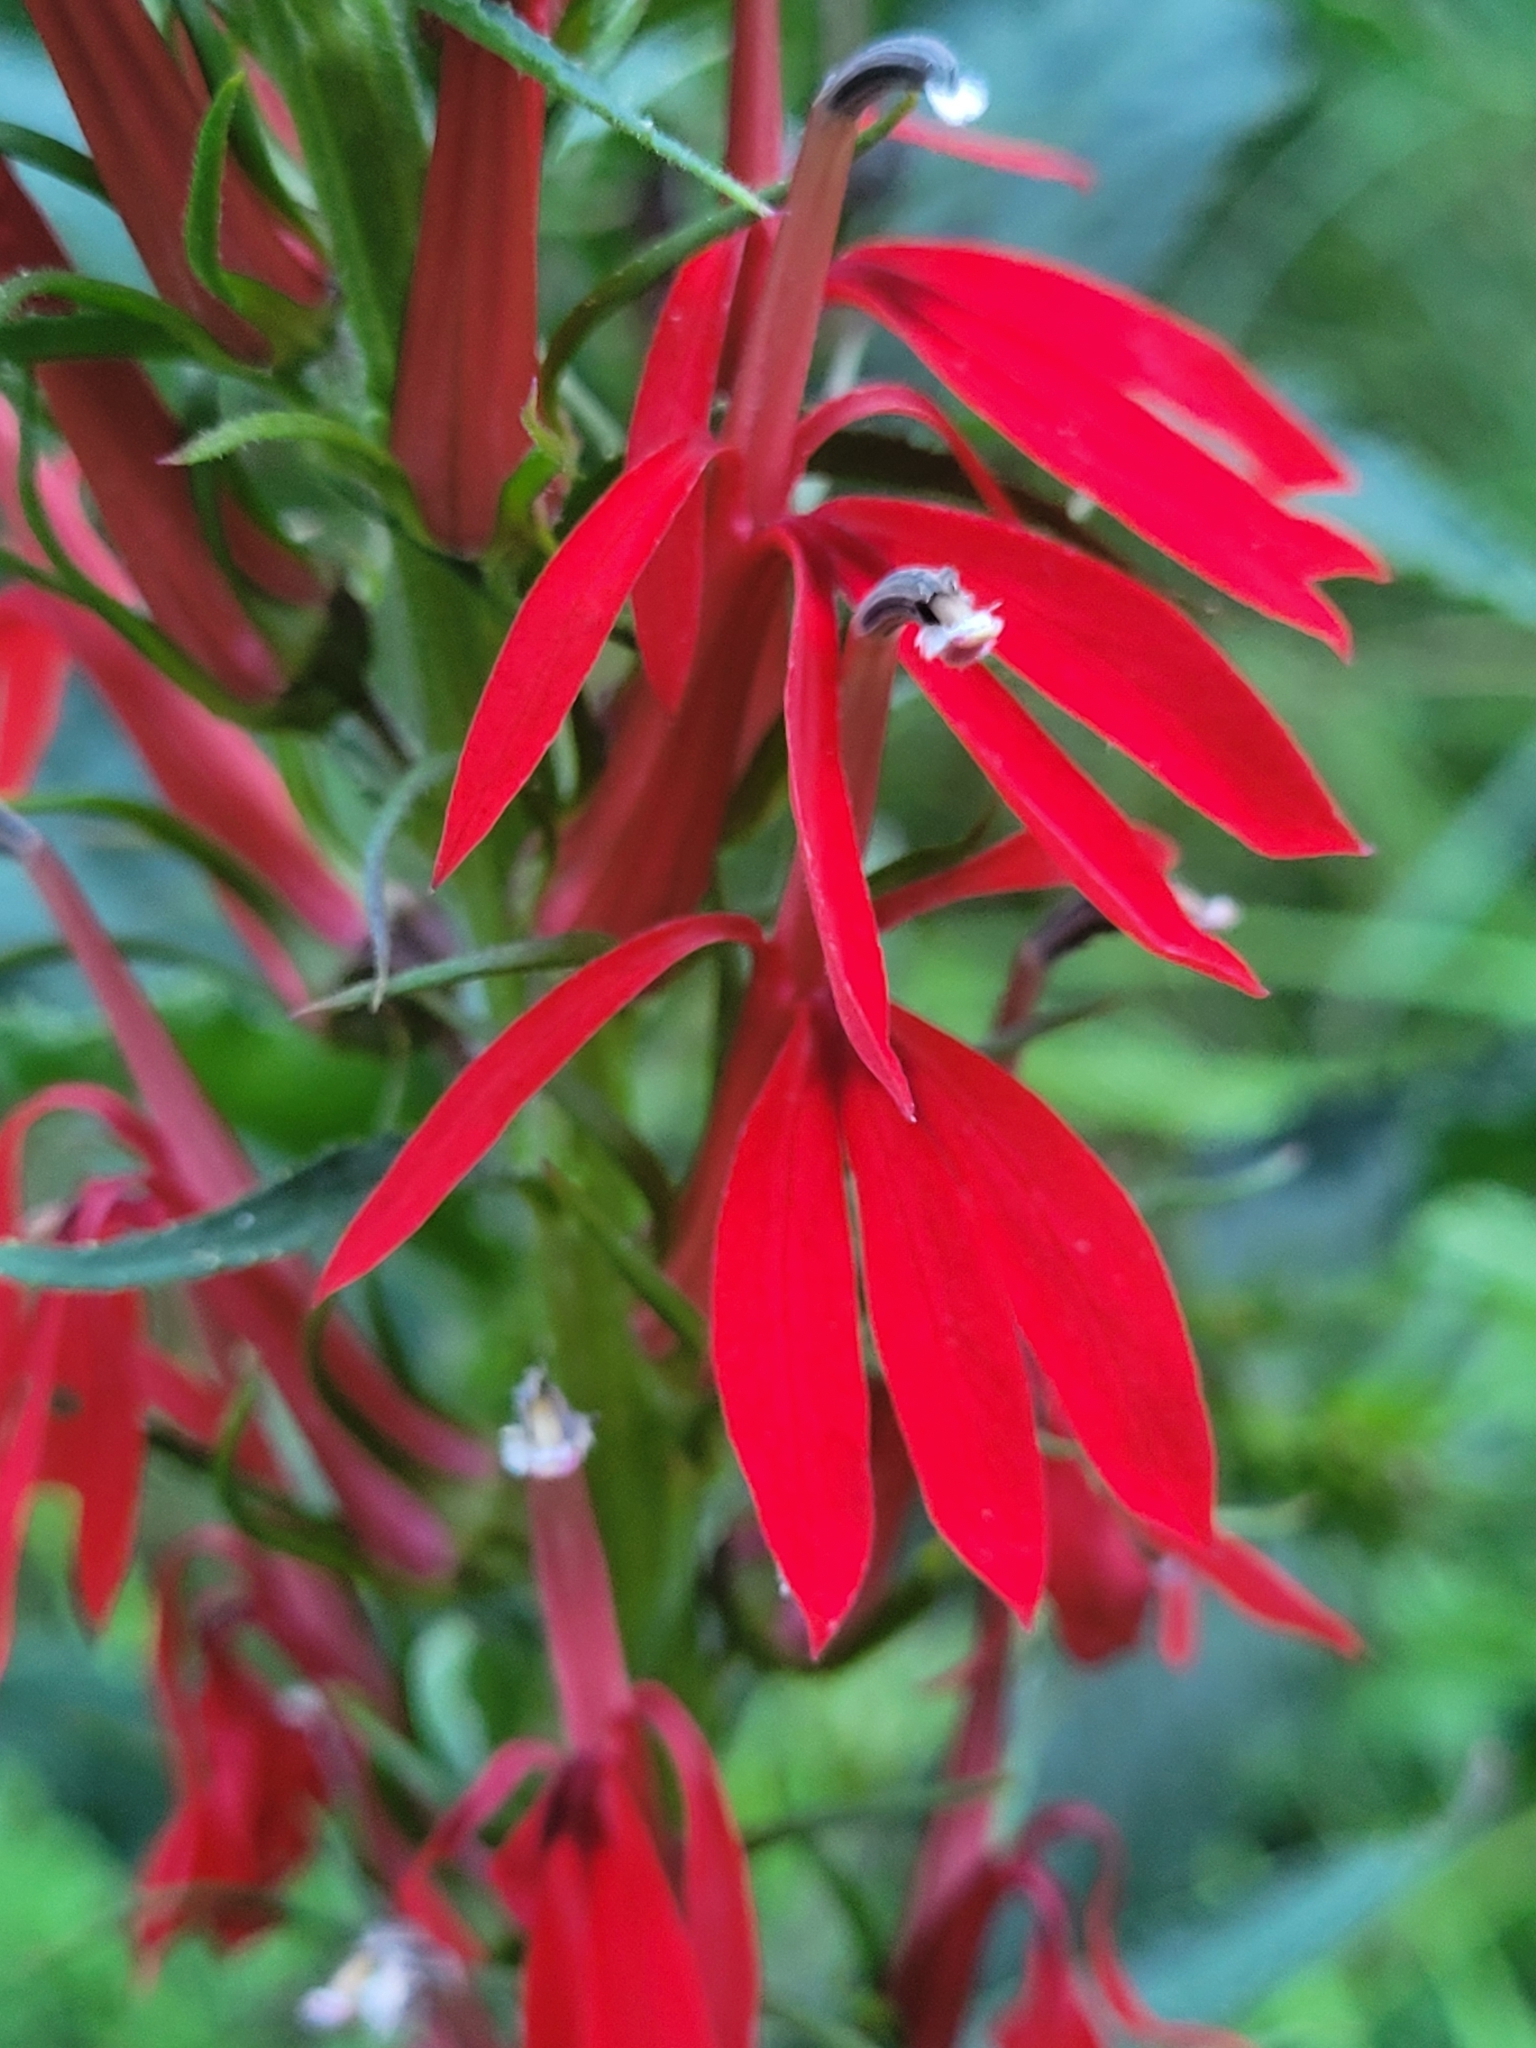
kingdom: Plantae
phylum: Tracheophyta
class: Magnoliopsida
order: Asterales
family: Campanulaceae
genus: Lobelia
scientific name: Lobelia cardinalis
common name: Cardinal flower
